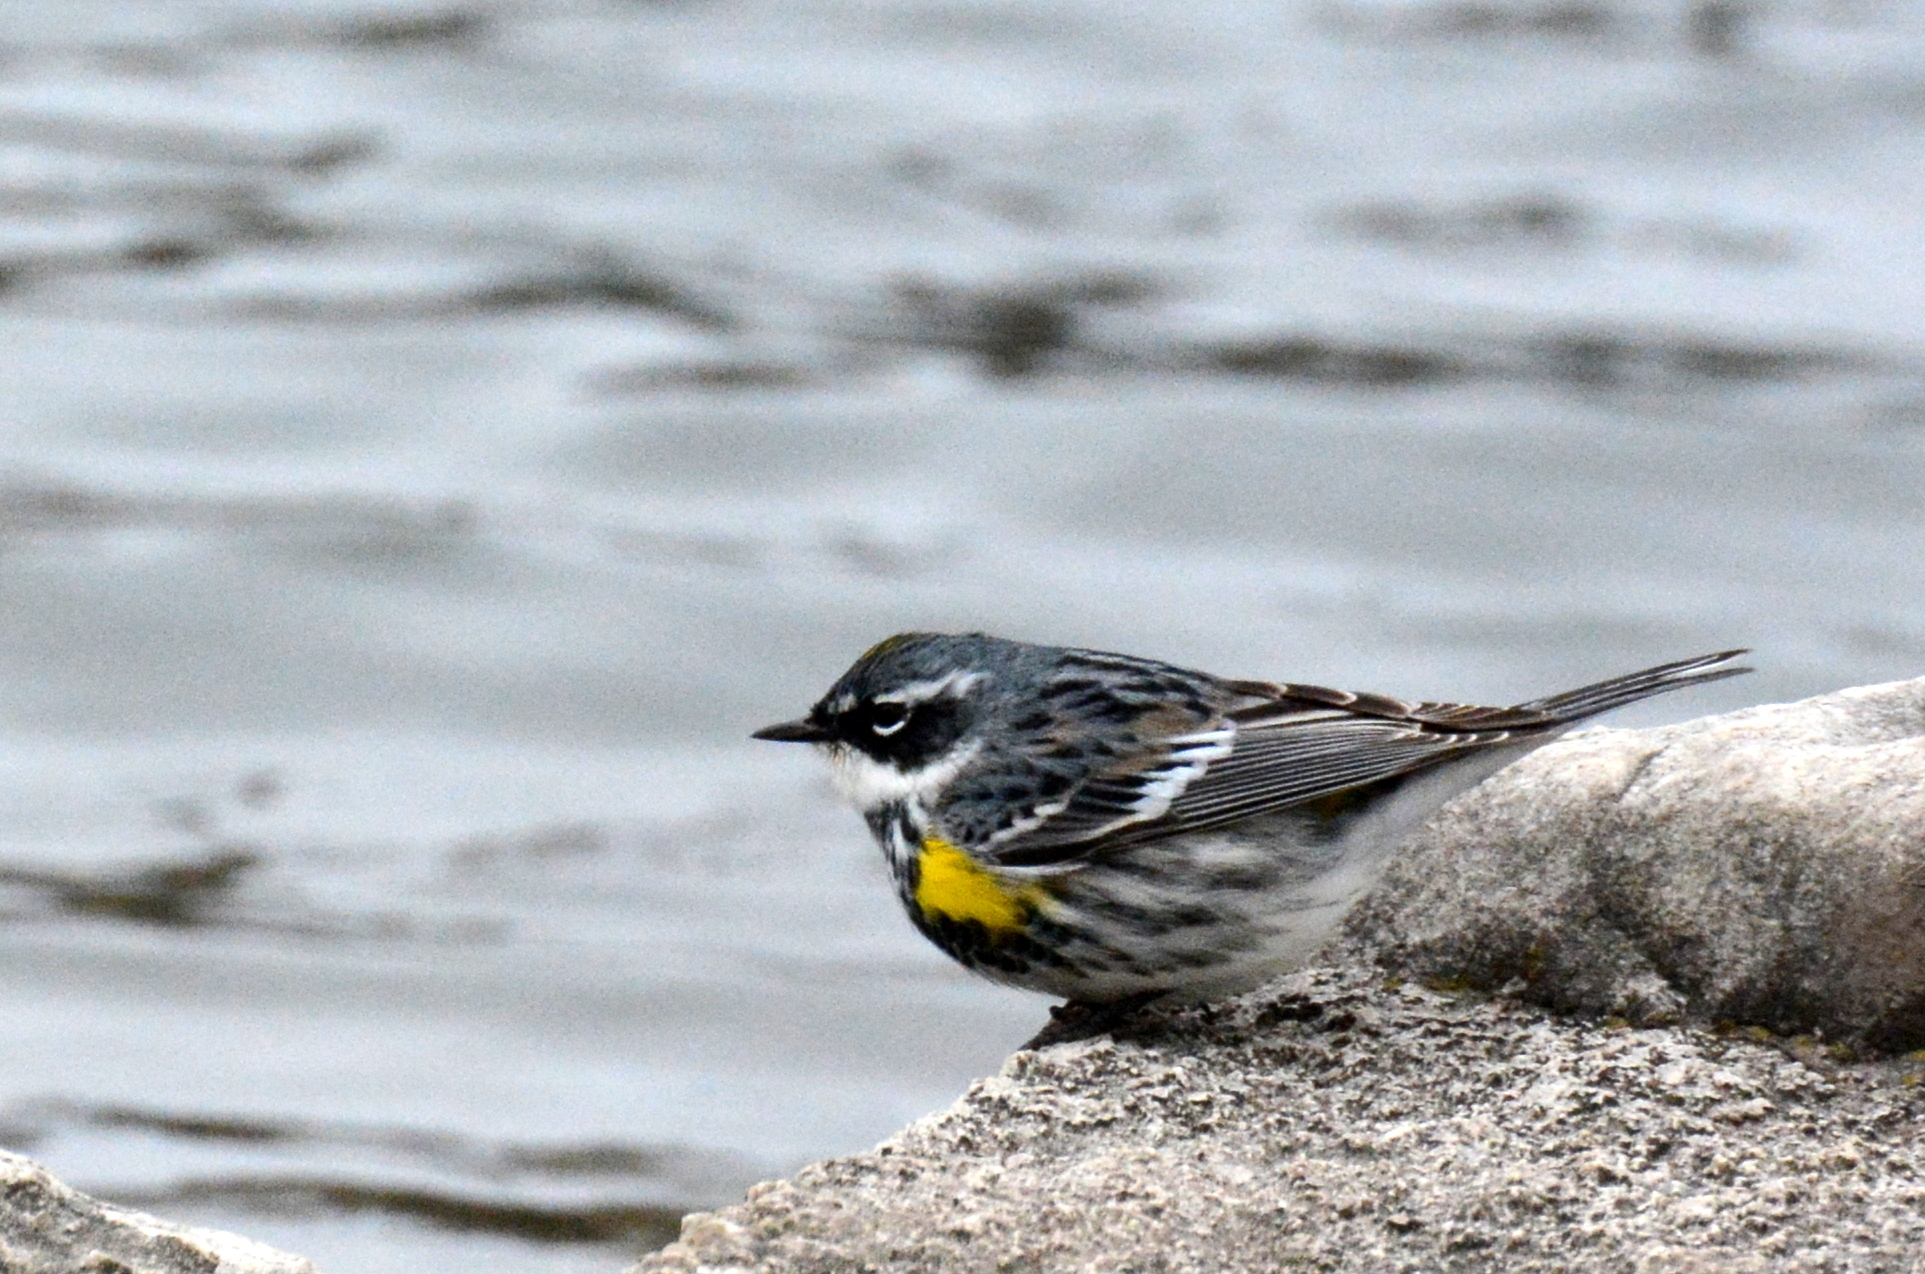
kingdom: Animalia
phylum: Chordata
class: Aves
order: Passeriformes
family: Parulidae
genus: Setophaga
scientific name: Setophaga coronata
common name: Myrtle warbler
